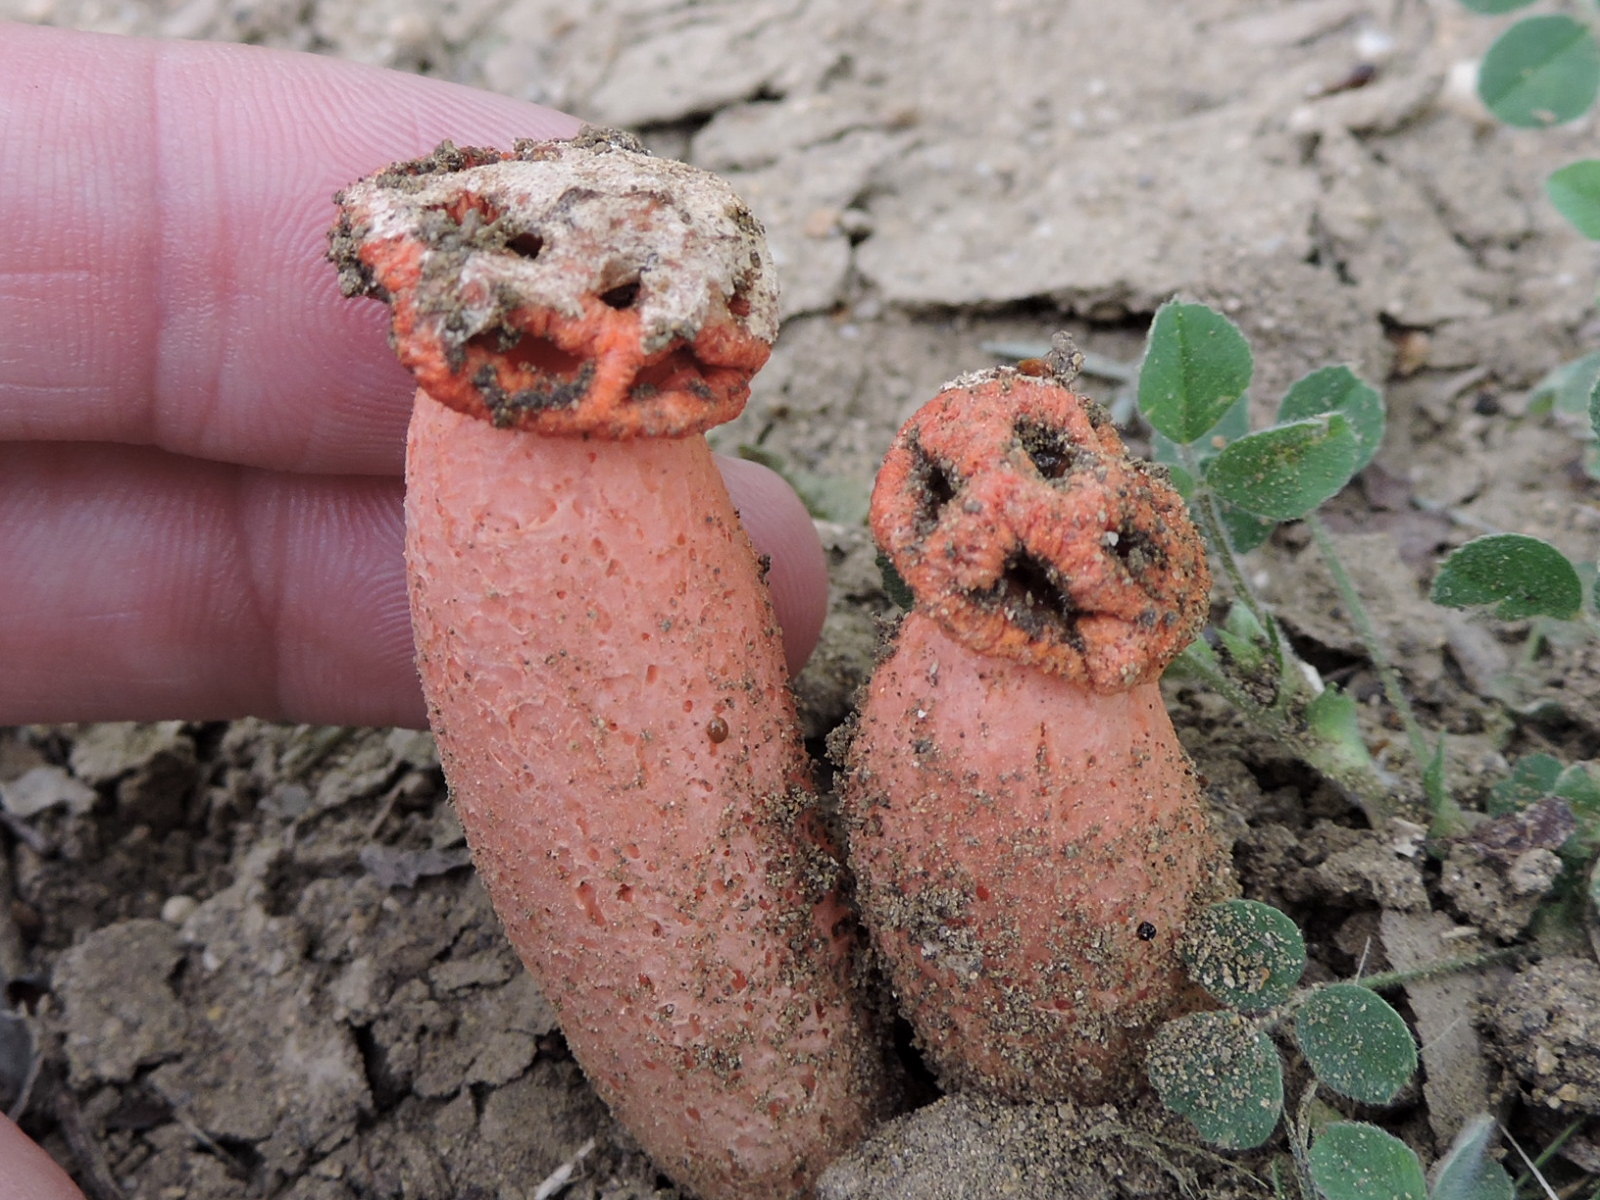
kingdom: Fungi
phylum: Basidiomycota
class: Agaricomycetes
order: Phallales
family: Phallaceae
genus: Lysurus
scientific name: Lysurus periphragmoides
